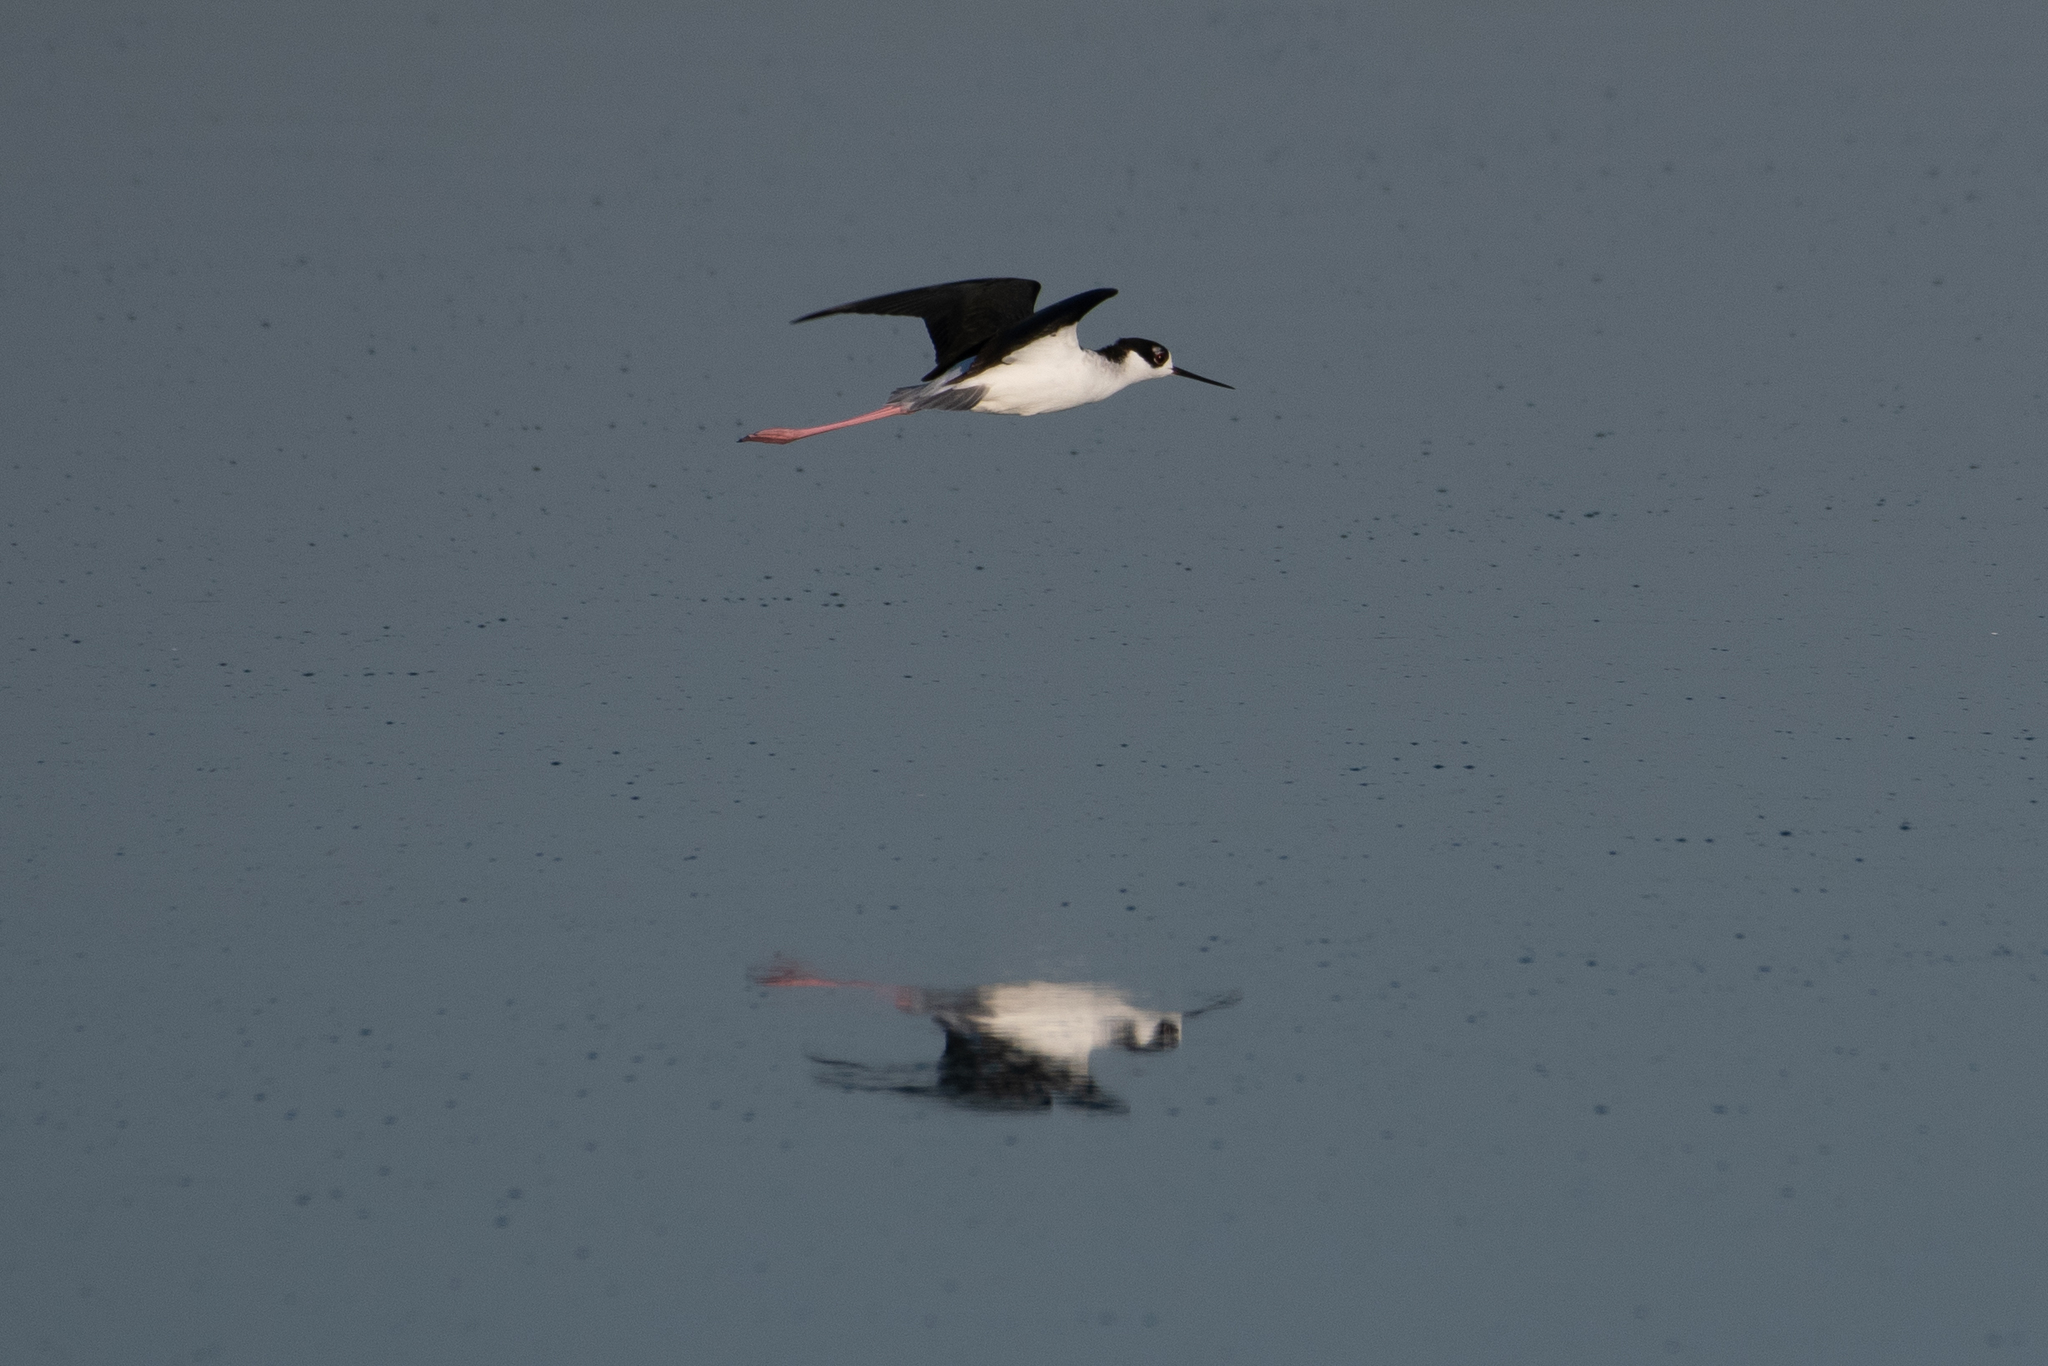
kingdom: Animalia
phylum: Chordata
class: Aves
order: Charadriiformes
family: Recurvirostridae
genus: Himantopus
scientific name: Himantopus mexicanus
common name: Black-necked stilt
